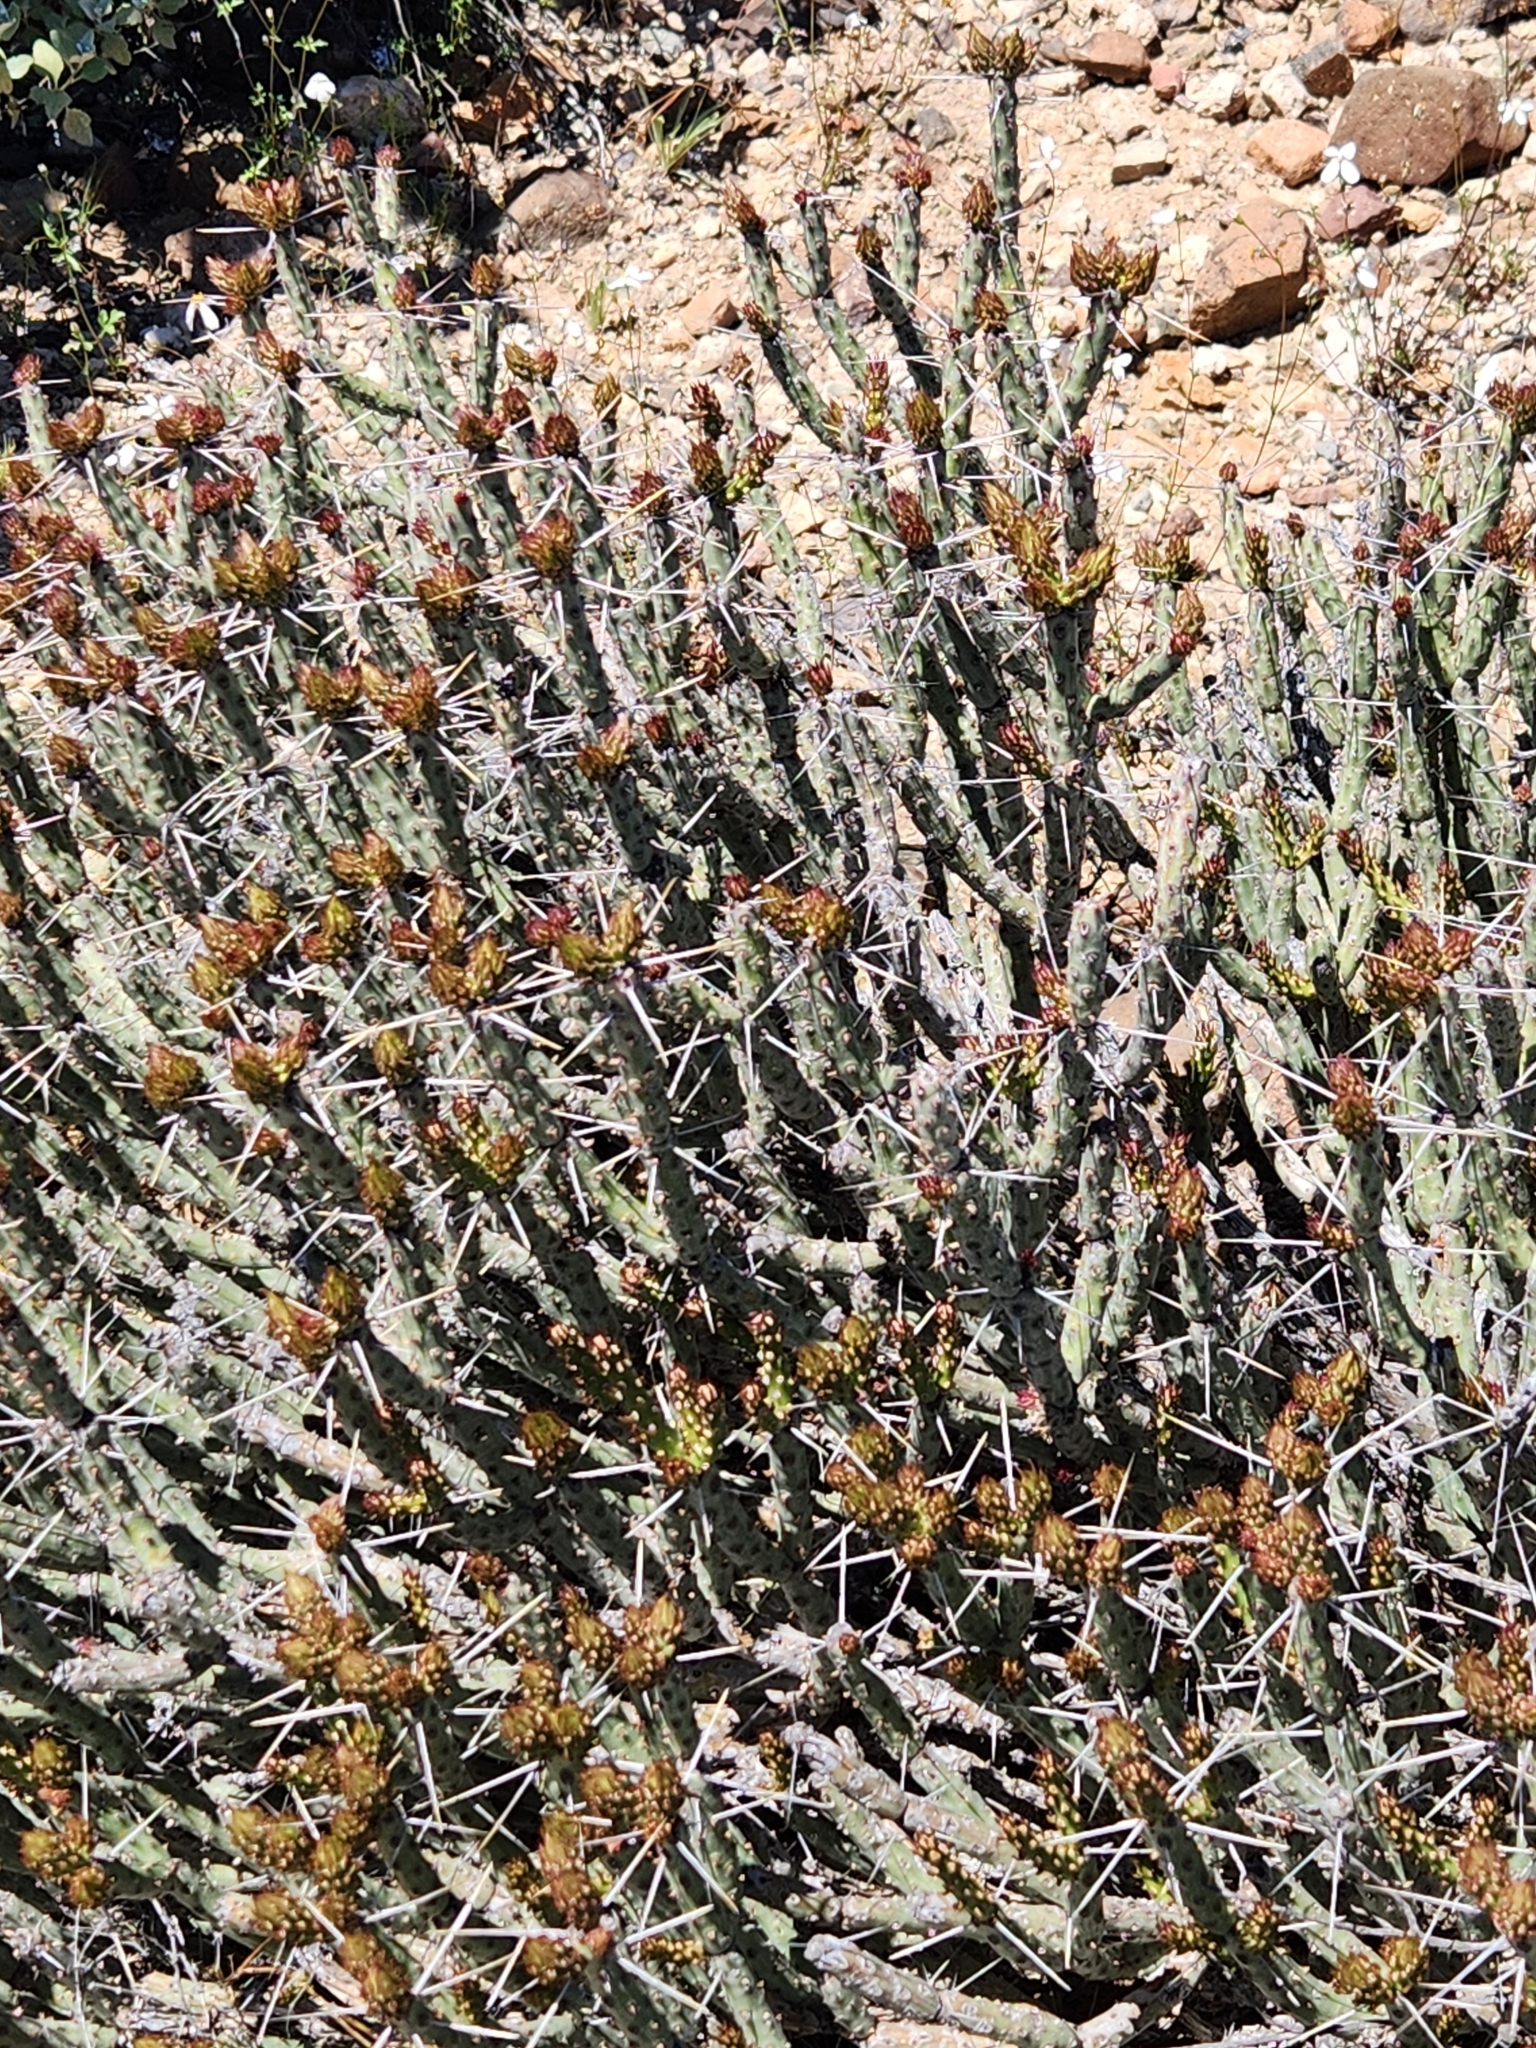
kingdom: Plantae
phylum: Tracheophyta
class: Magnoliopsida
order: Caryophyllales
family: Cactaceae
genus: Cylindropuntia
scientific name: Cylindropuntia tesajo
